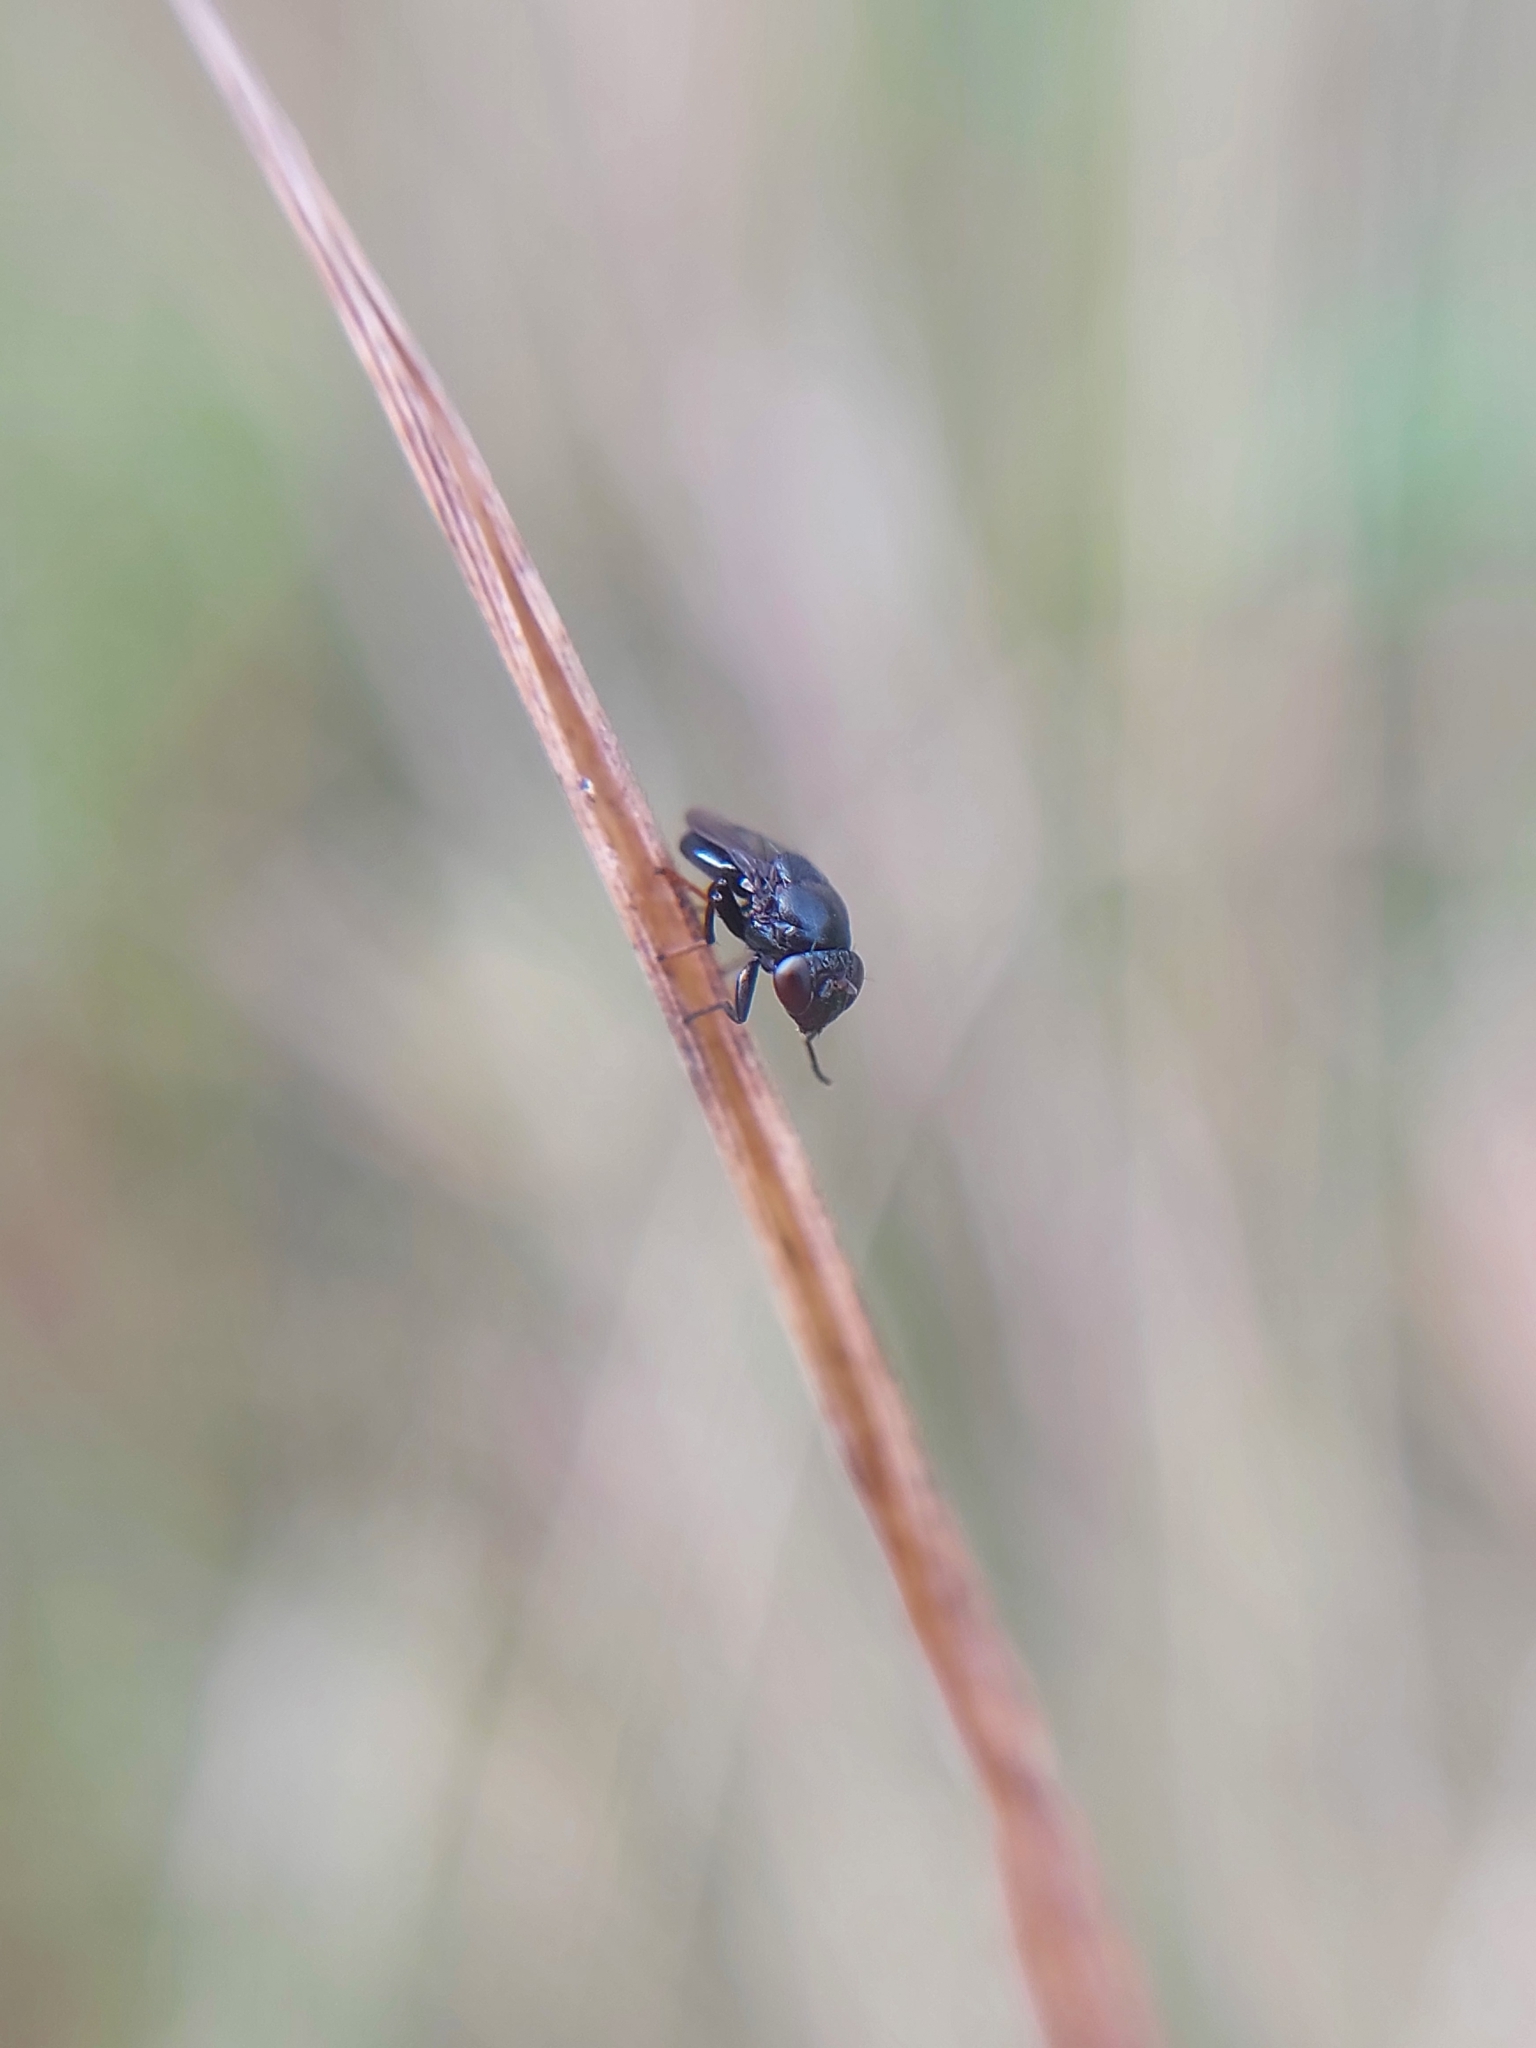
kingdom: Animalia
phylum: Arthropoda
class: Insecta
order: Diptera
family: Ephydridae
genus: Discomyza
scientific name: Discomyza incurva
